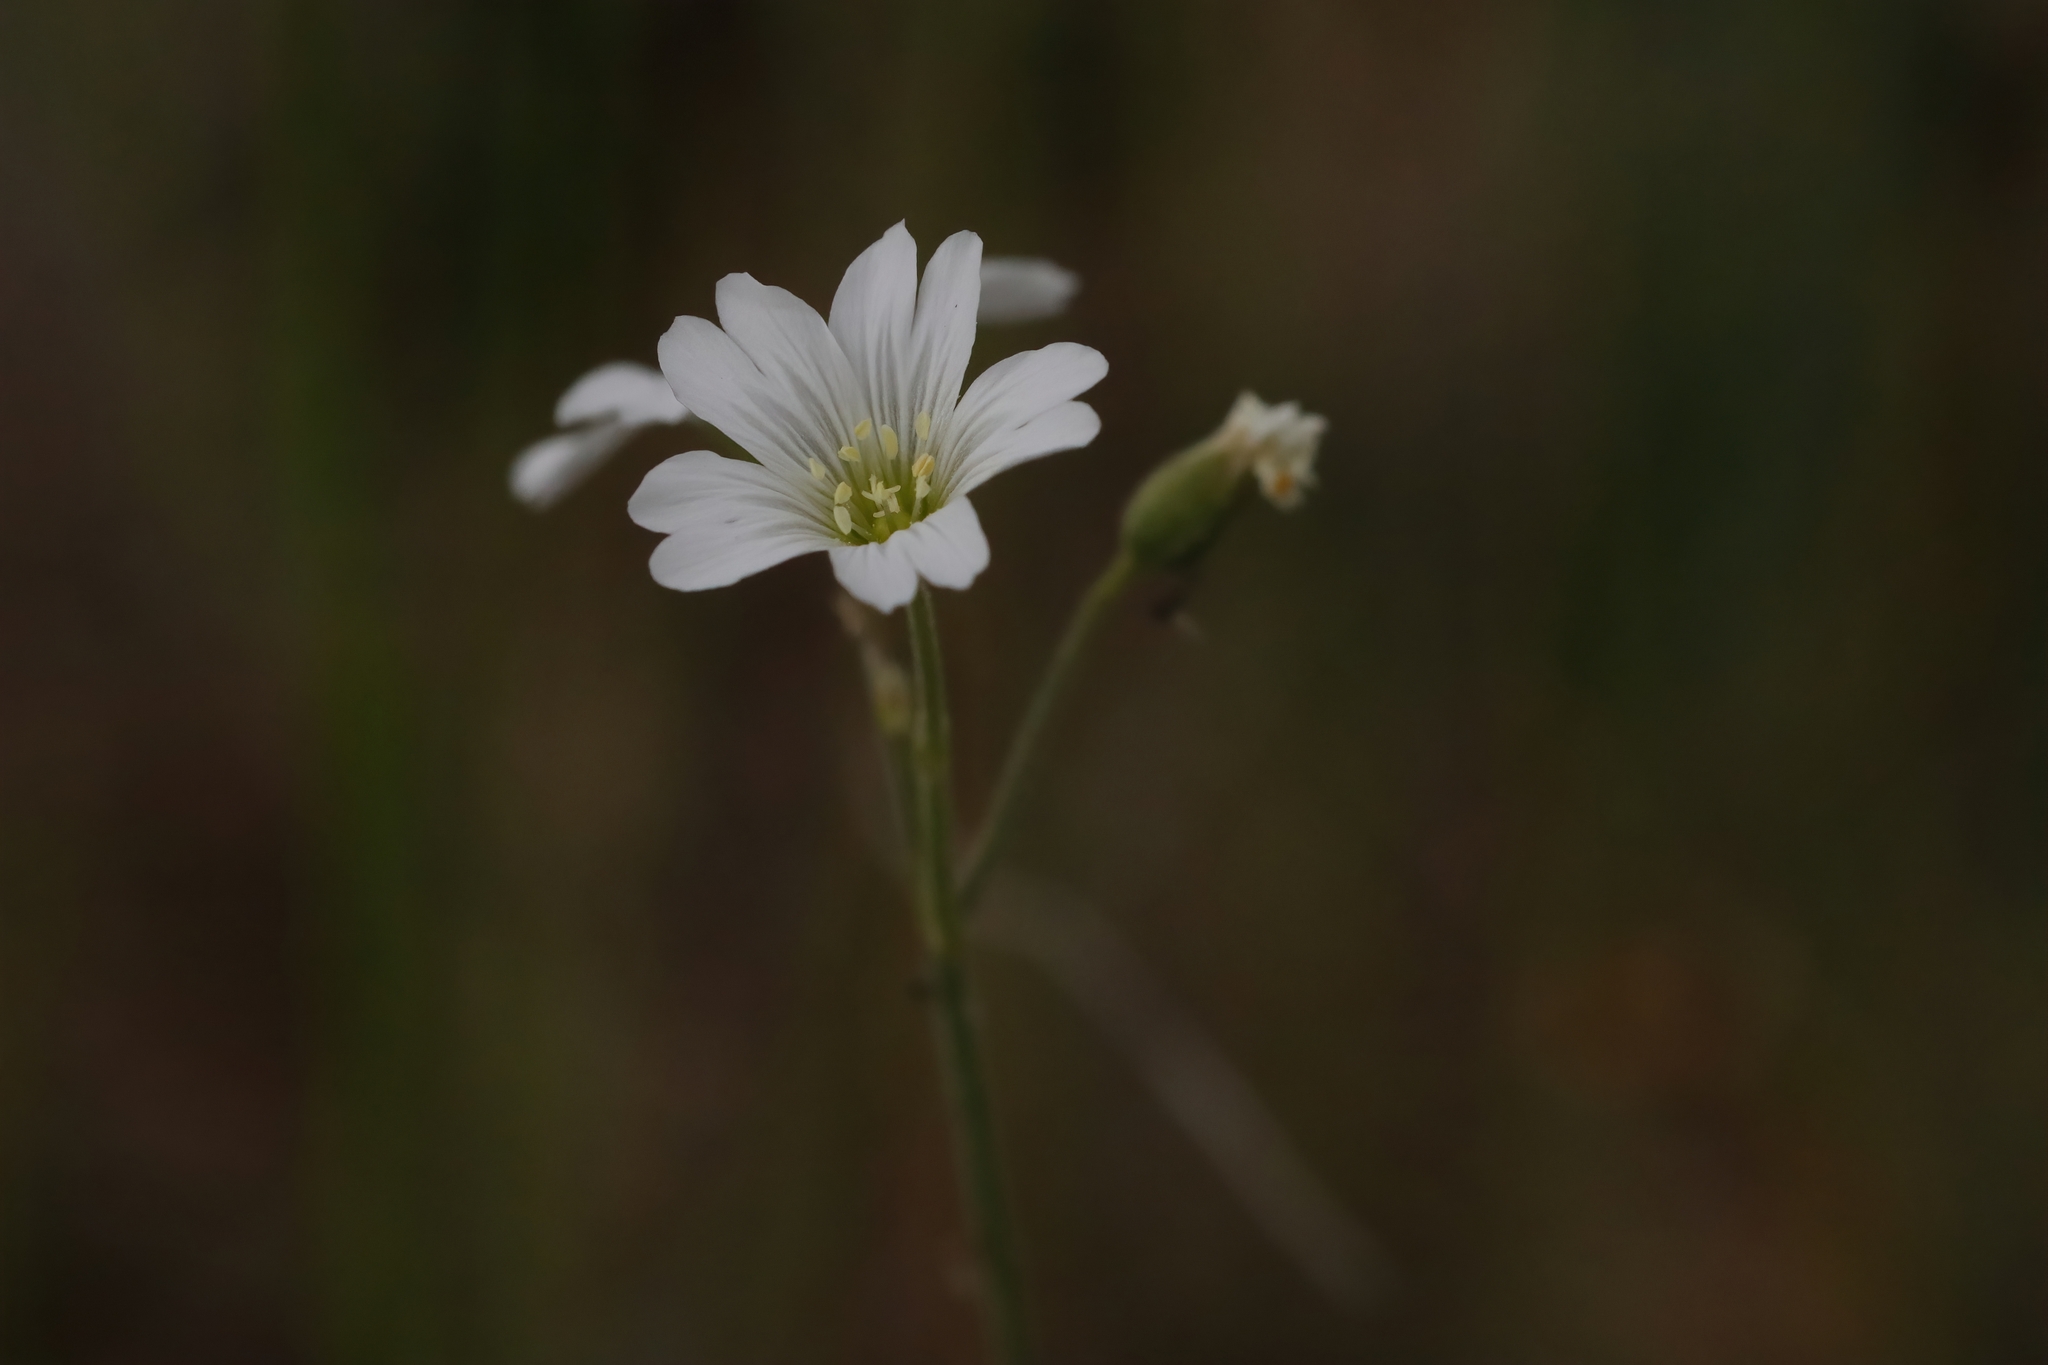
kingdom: Plantae
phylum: Tracheophyta
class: Magnoliopsida
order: Caryophyllales
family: Caryophyllaceae
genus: Cerastium
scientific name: Cerastium arvense
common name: Field mouse-ear
